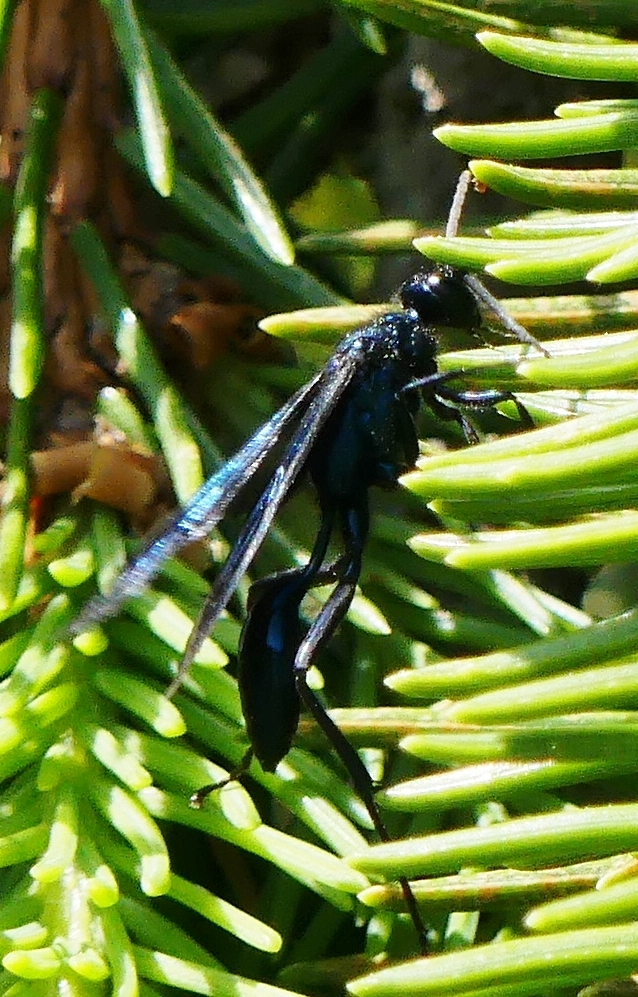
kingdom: Animalia
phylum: Arthropoda
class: Insecta
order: Hymenoptera
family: Sphecidae
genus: Chalybion
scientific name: Chalybion californicum
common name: Mud dauber
